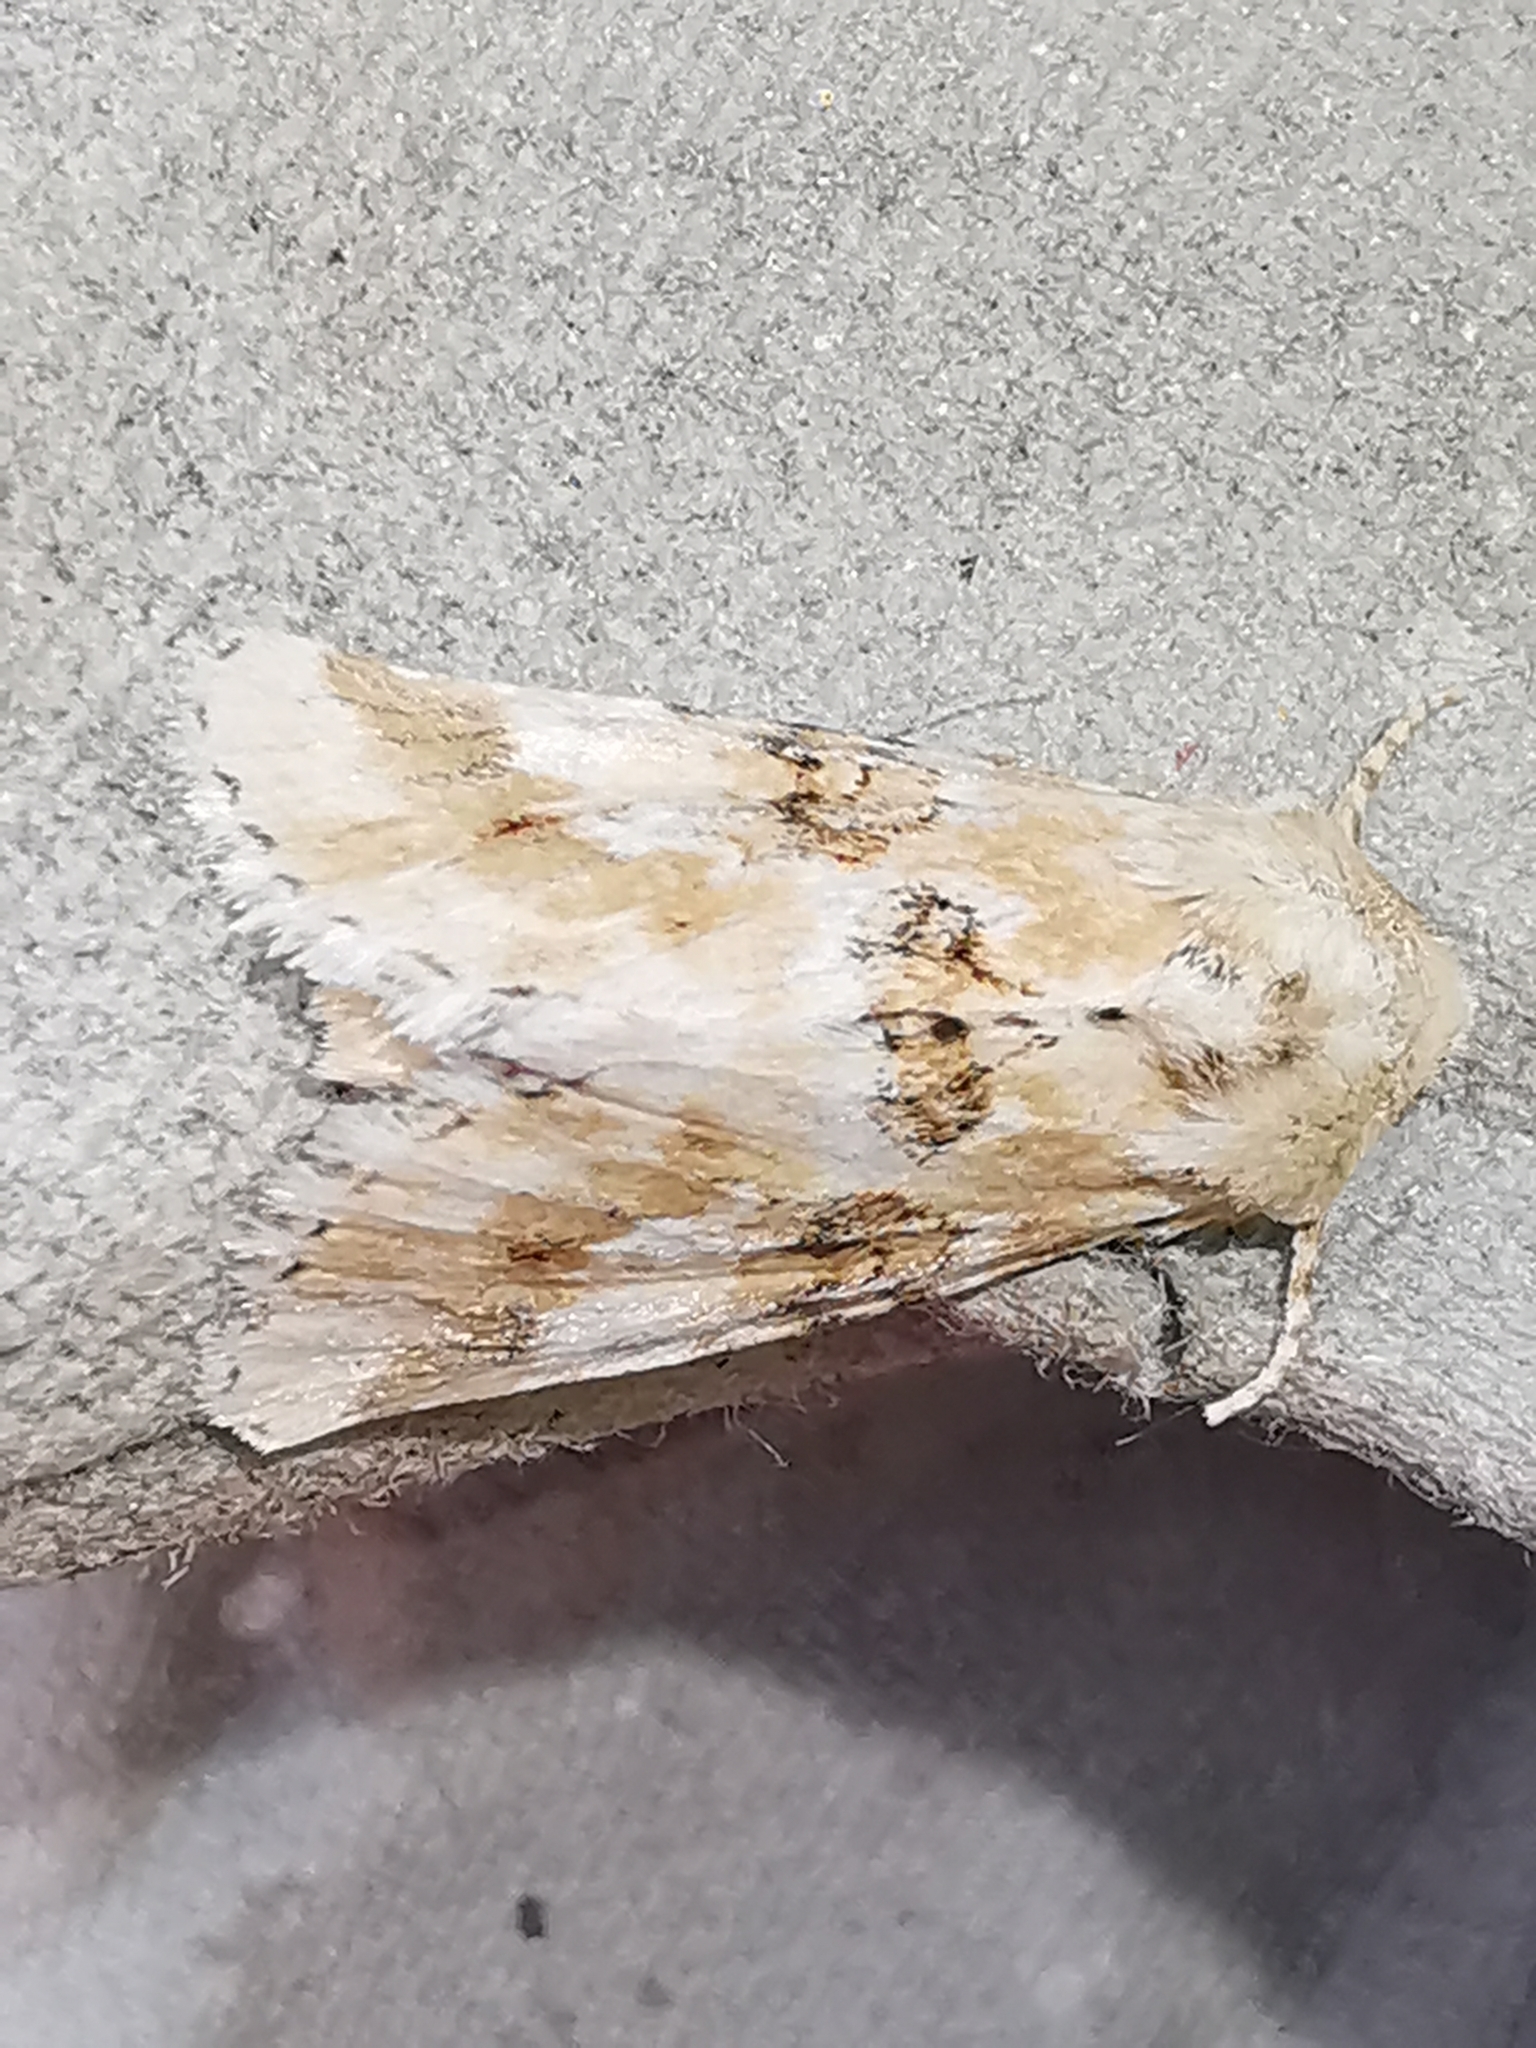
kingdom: Animalia
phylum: Arthropoda
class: Insecta
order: Lepidoptera
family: Noctuidae
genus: Eremobia
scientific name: Eremobia ochroleuca
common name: Dusky sallow
